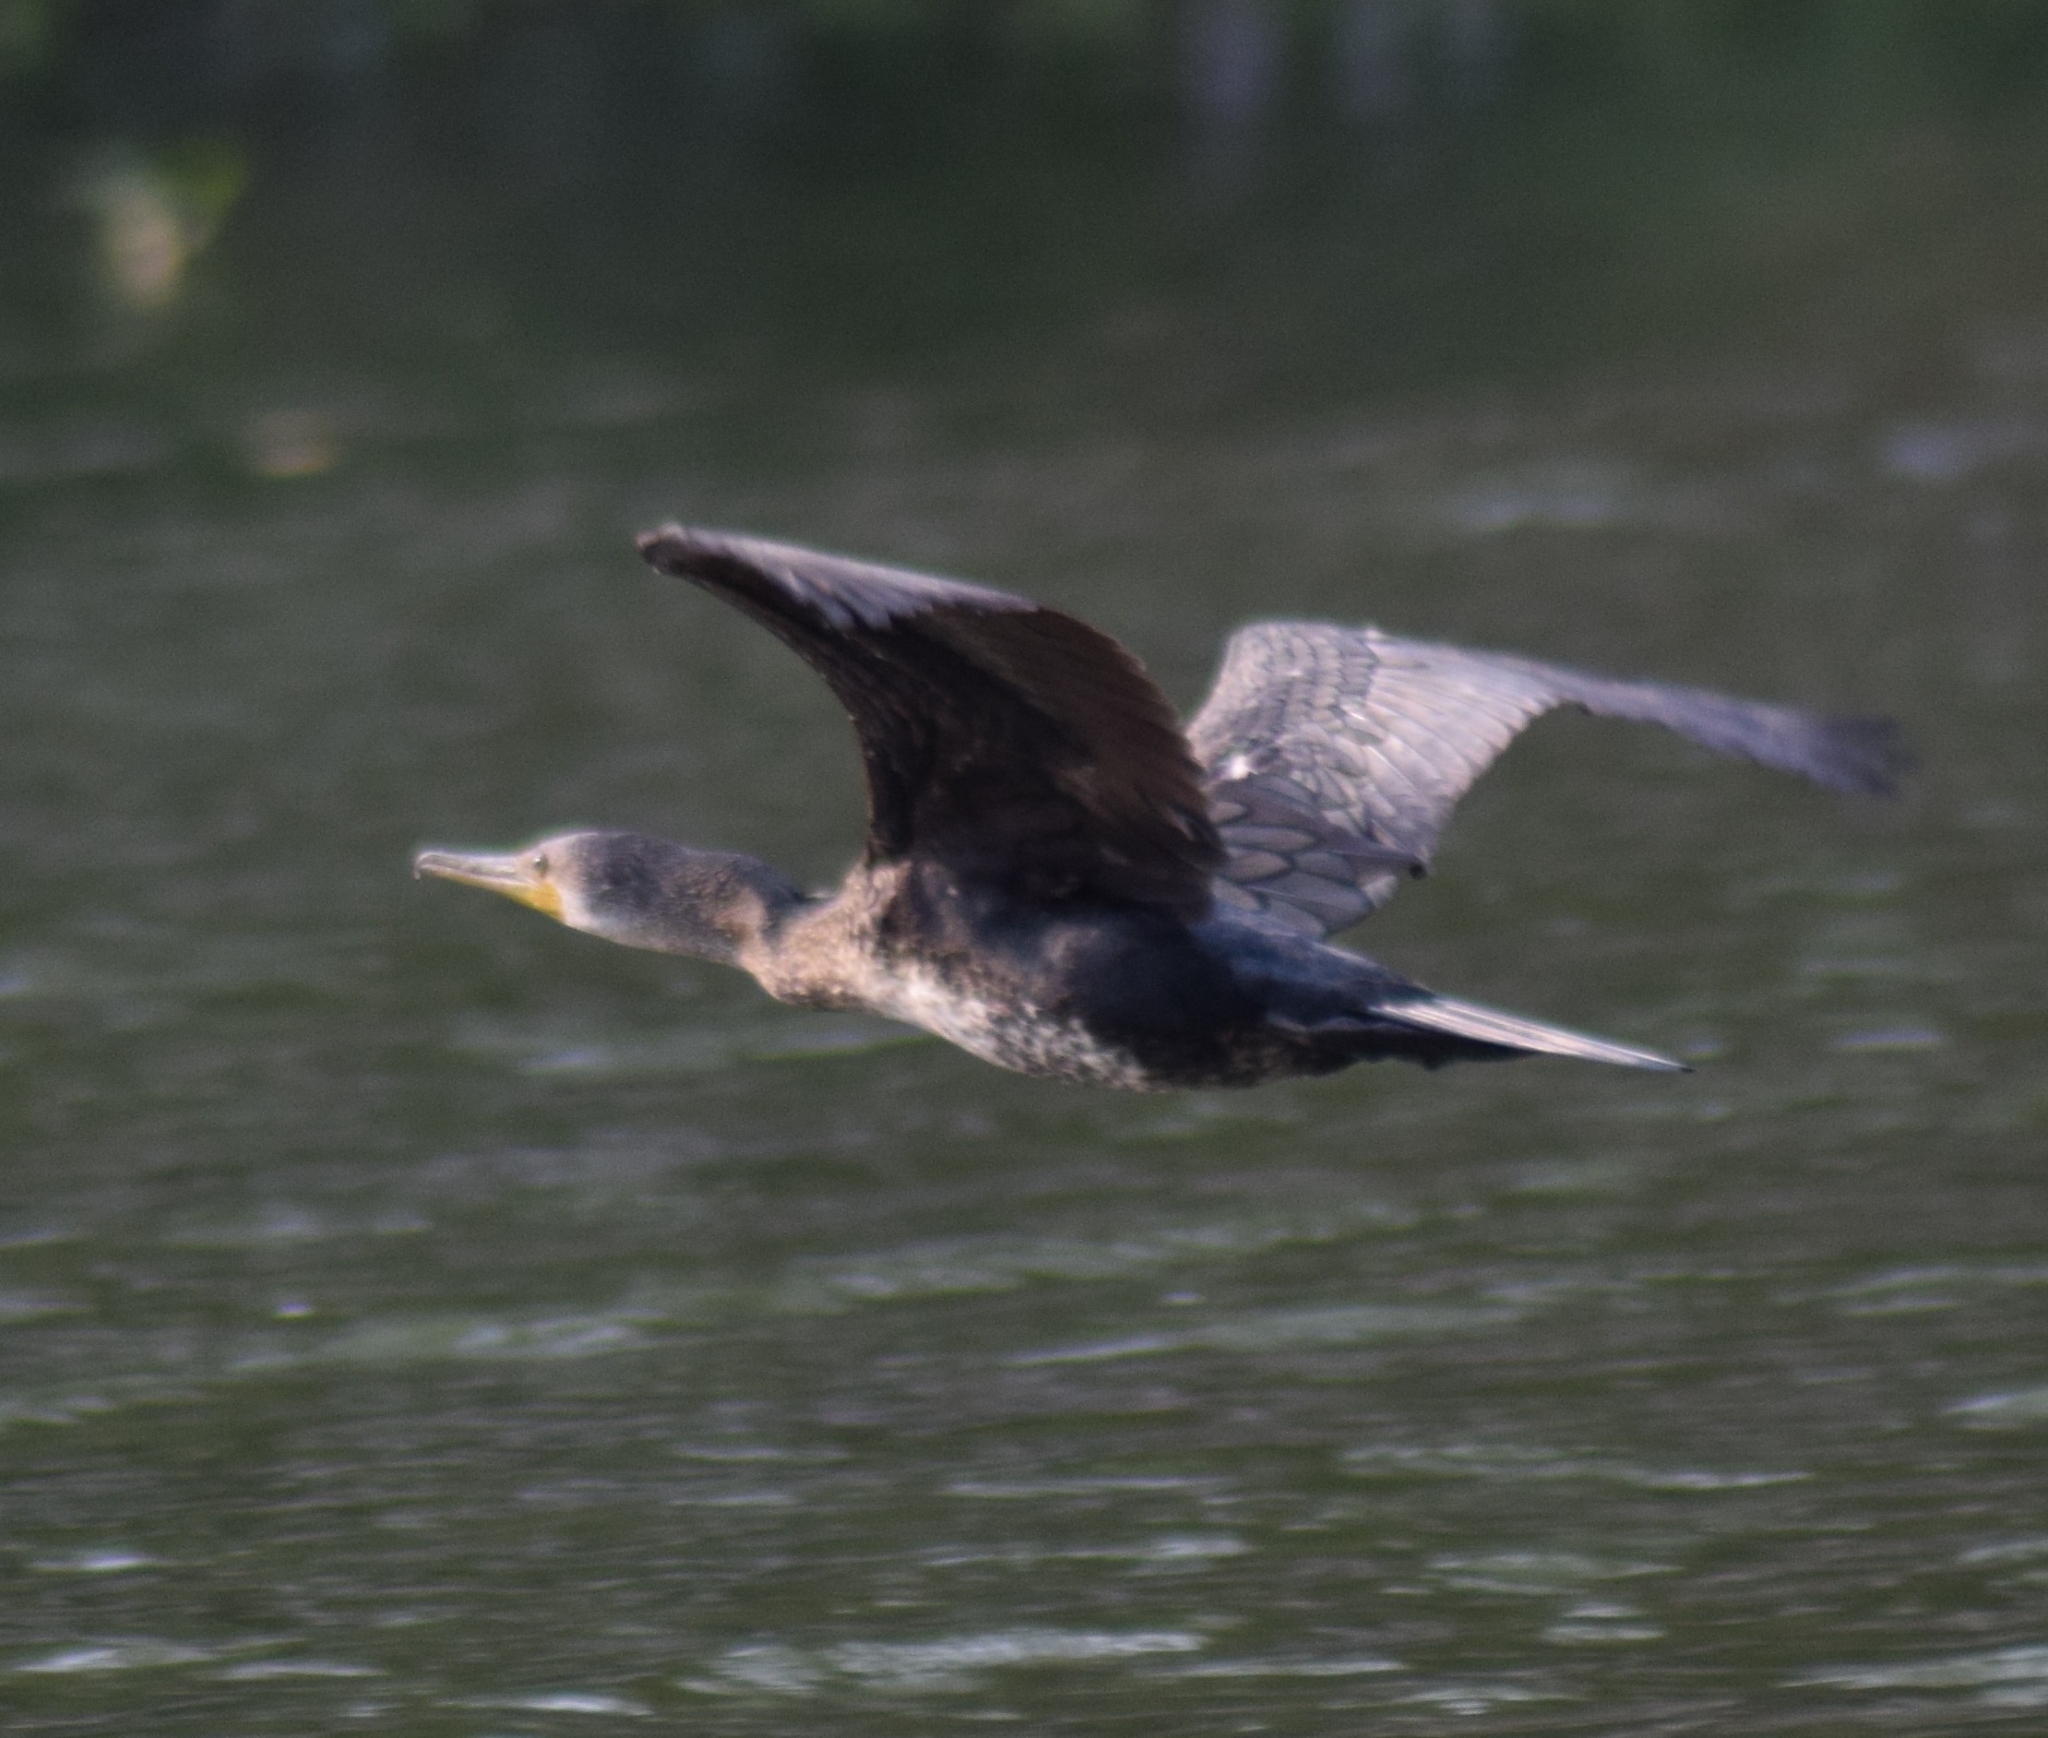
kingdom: Animalia
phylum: Chordata
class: Aves
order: Suliformes
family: Phalacrocoracidae
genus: Phalacrocorax
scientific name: Phalacrocorax fuscicollis
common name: Indian cormorant
